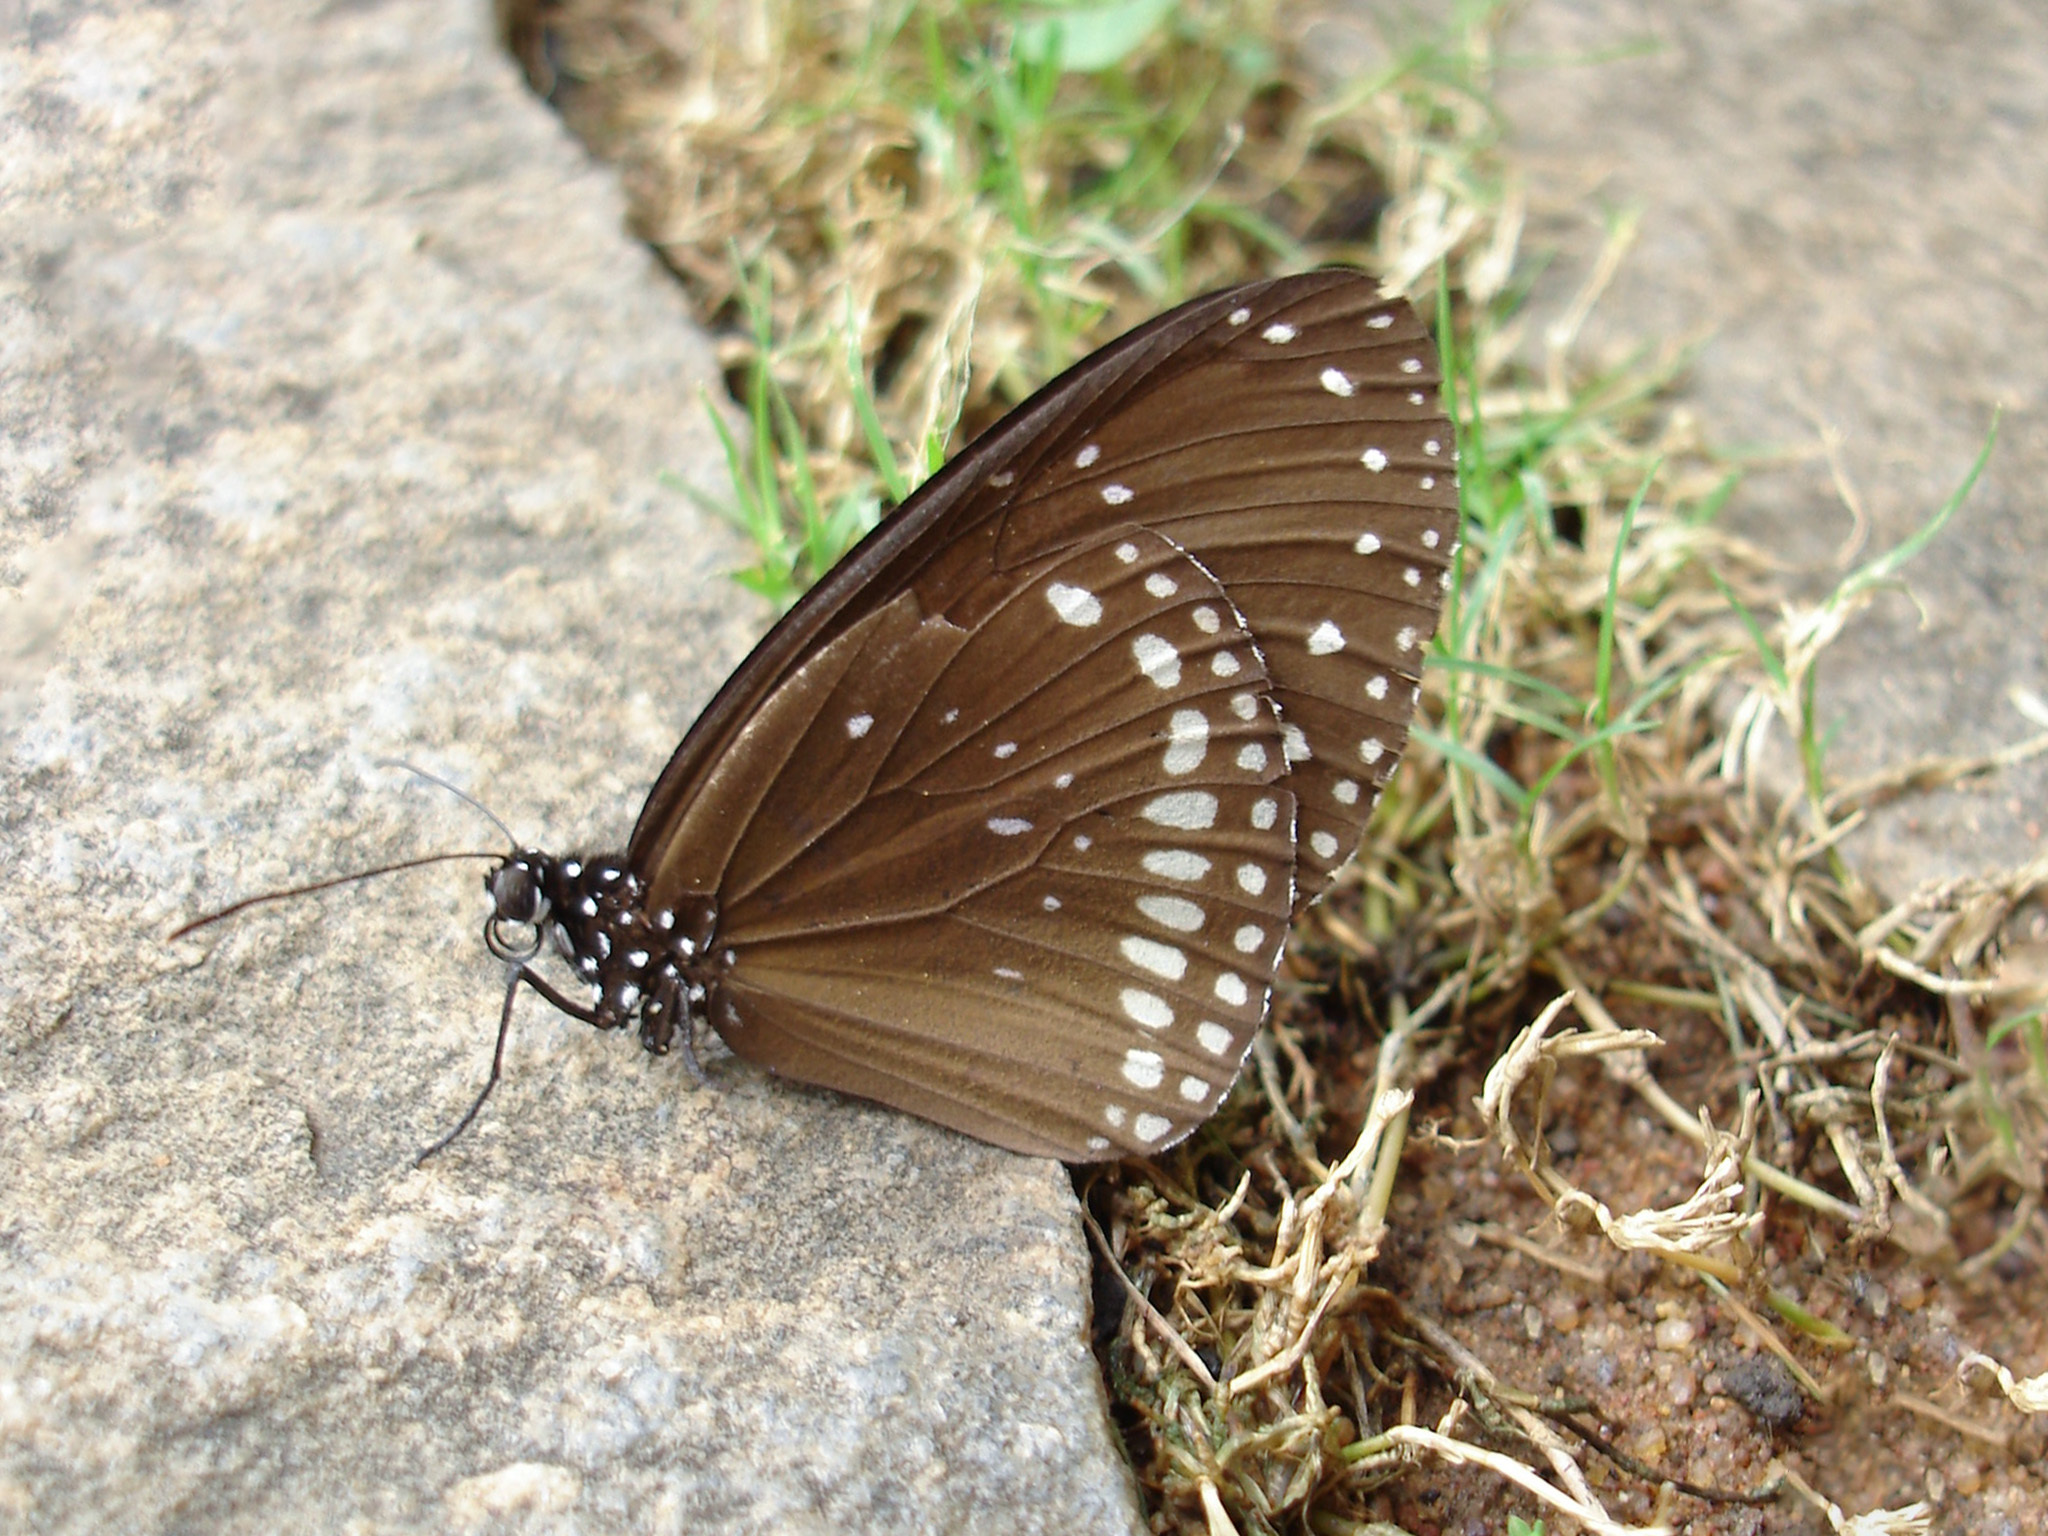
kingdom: Animalia
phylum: Arthropoda
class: Insecta
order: Lepidoptera
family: Nymphalidae
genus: Euploea
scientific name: Euploea sylvester
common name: Double-branded crow butterfly
